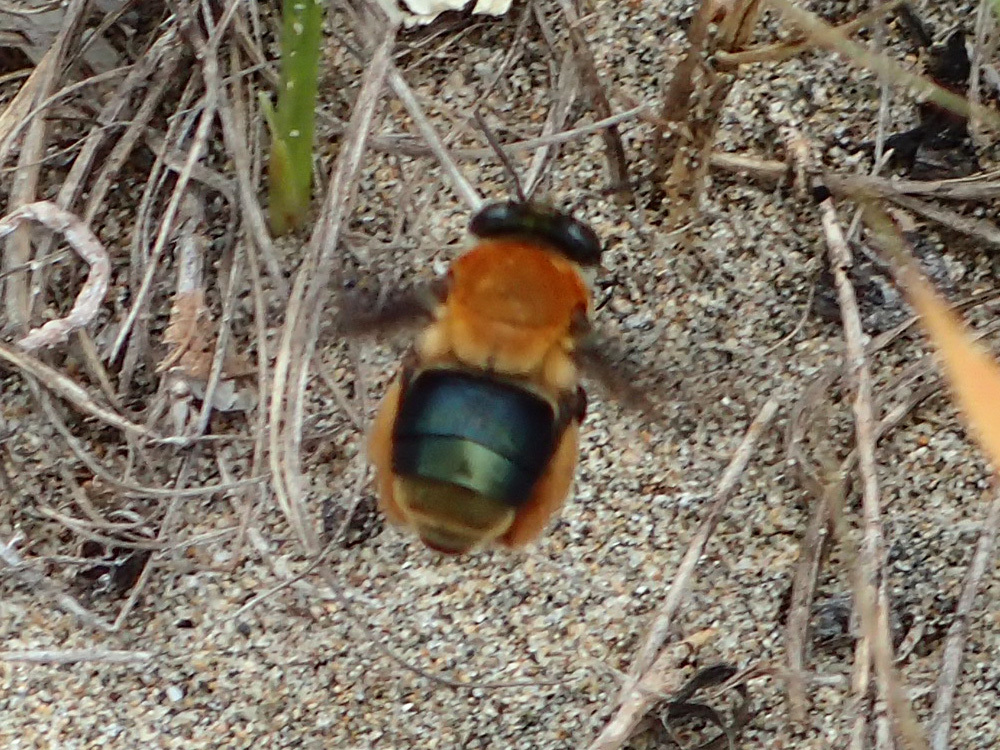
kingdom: Animalia
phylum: Arthropoda
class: Insecta
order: Hymenoptera
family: Apidae
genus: Centris
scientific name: Centris decolorata
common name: Crazy beach bee
